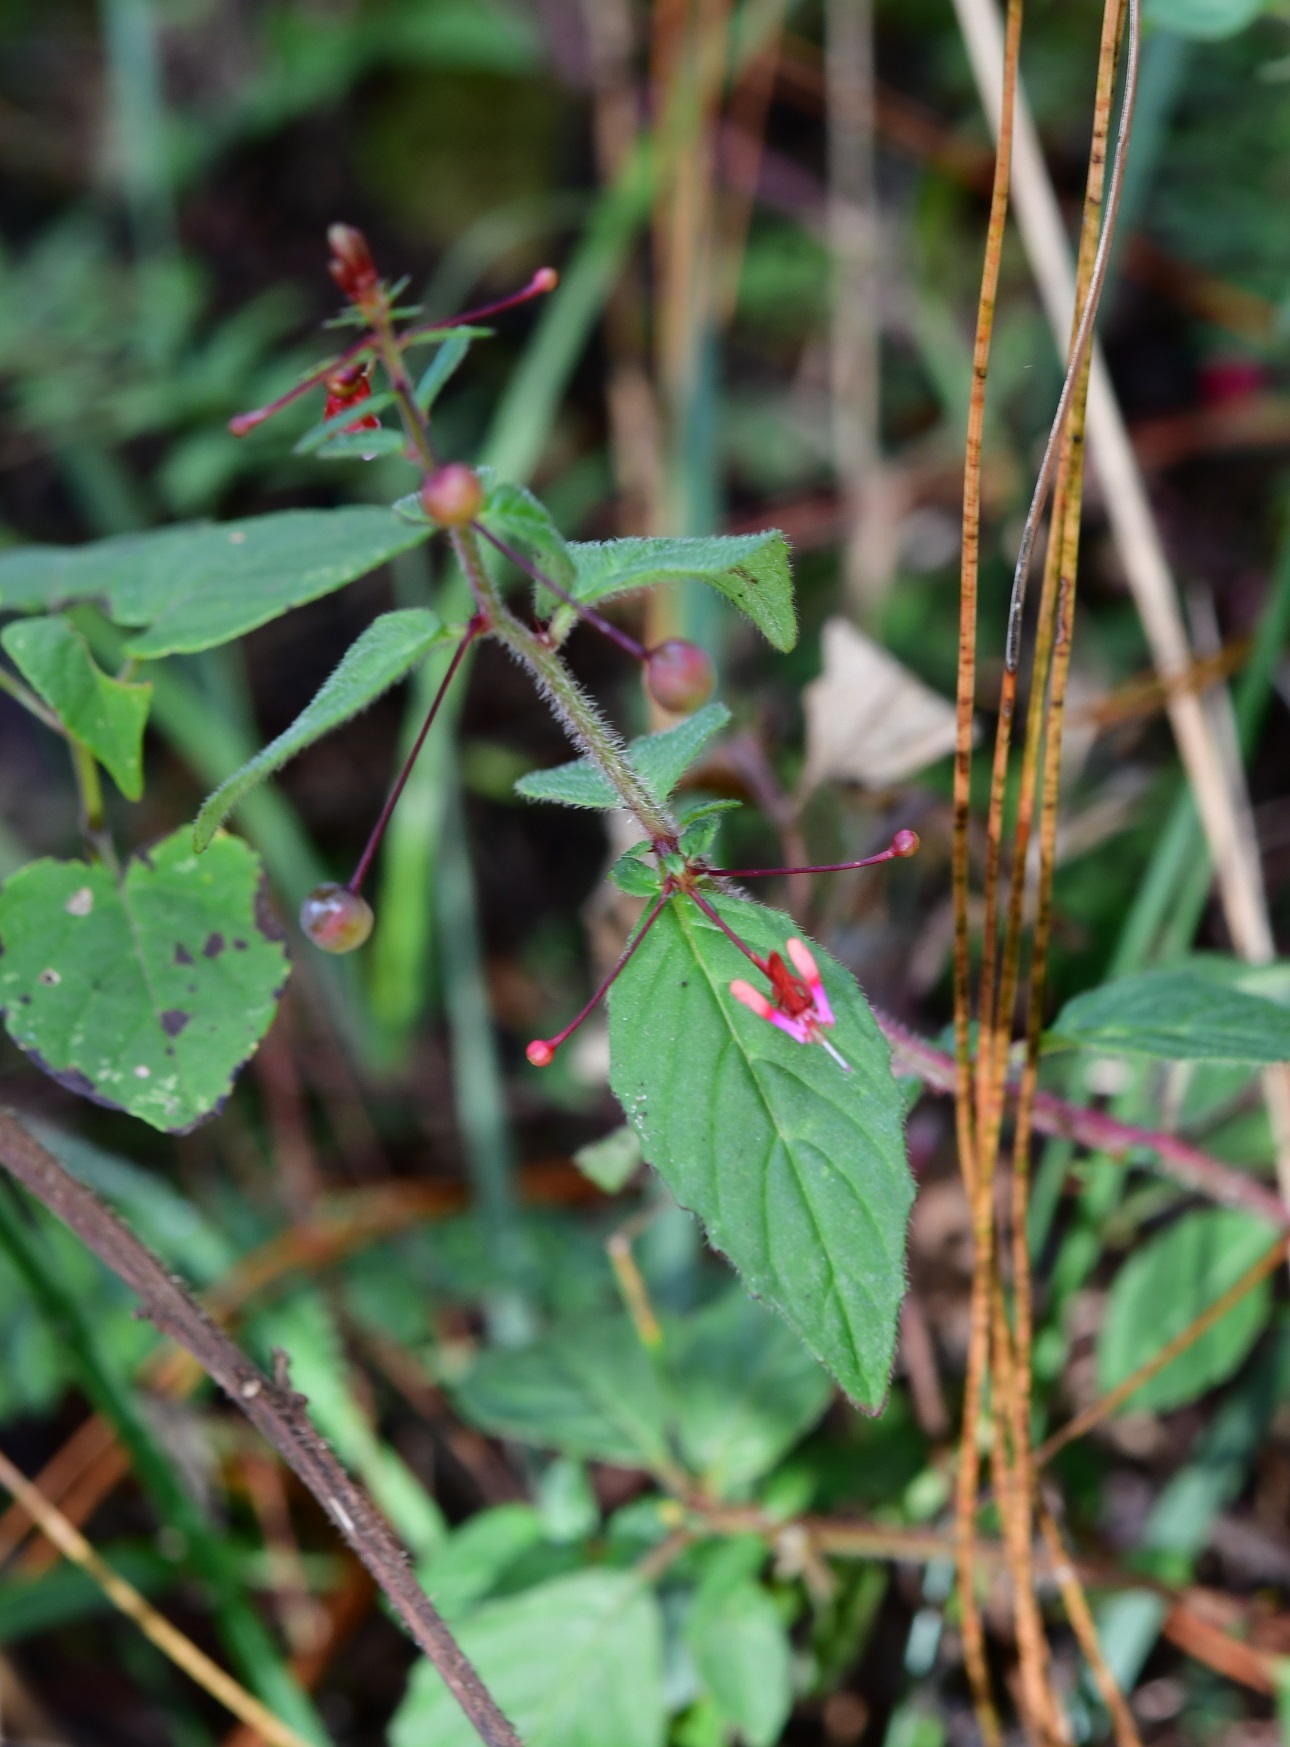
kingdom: Plantae
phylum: Tracheophyta
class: Magnoliopsida
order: Myrtales
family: Onagraceae
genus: Lopezia
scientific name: Lopezia racemosa
